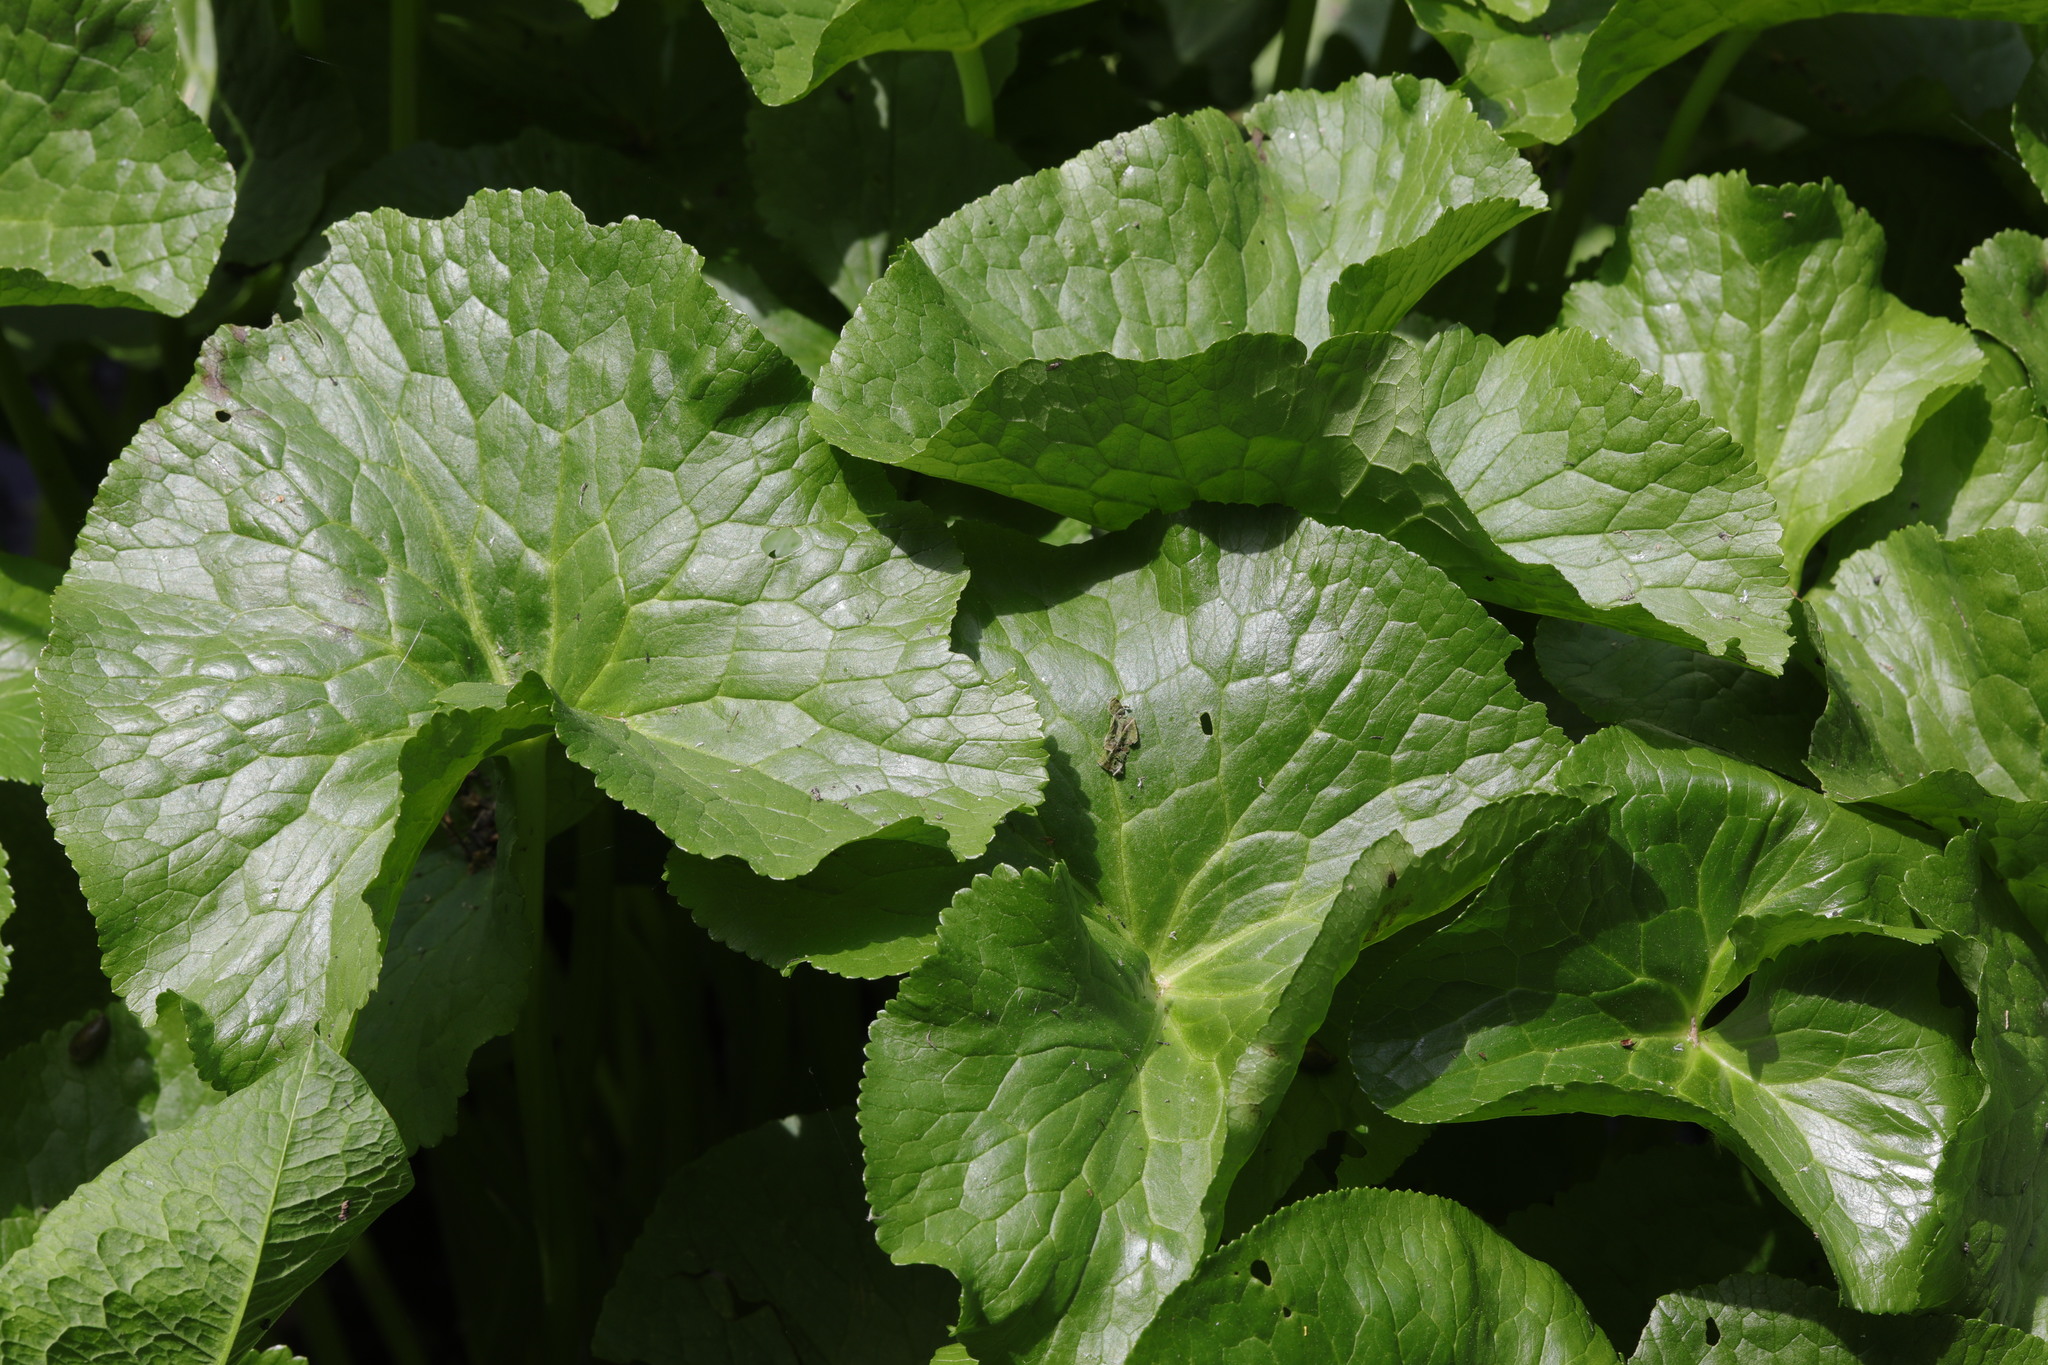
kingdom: Plantae
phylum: Tracheophyta
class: Magnoliopsida
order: Ranunculales
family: Ranunculaceae
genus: Caltha
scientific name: Caltha palustris
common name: Marsh marigold
